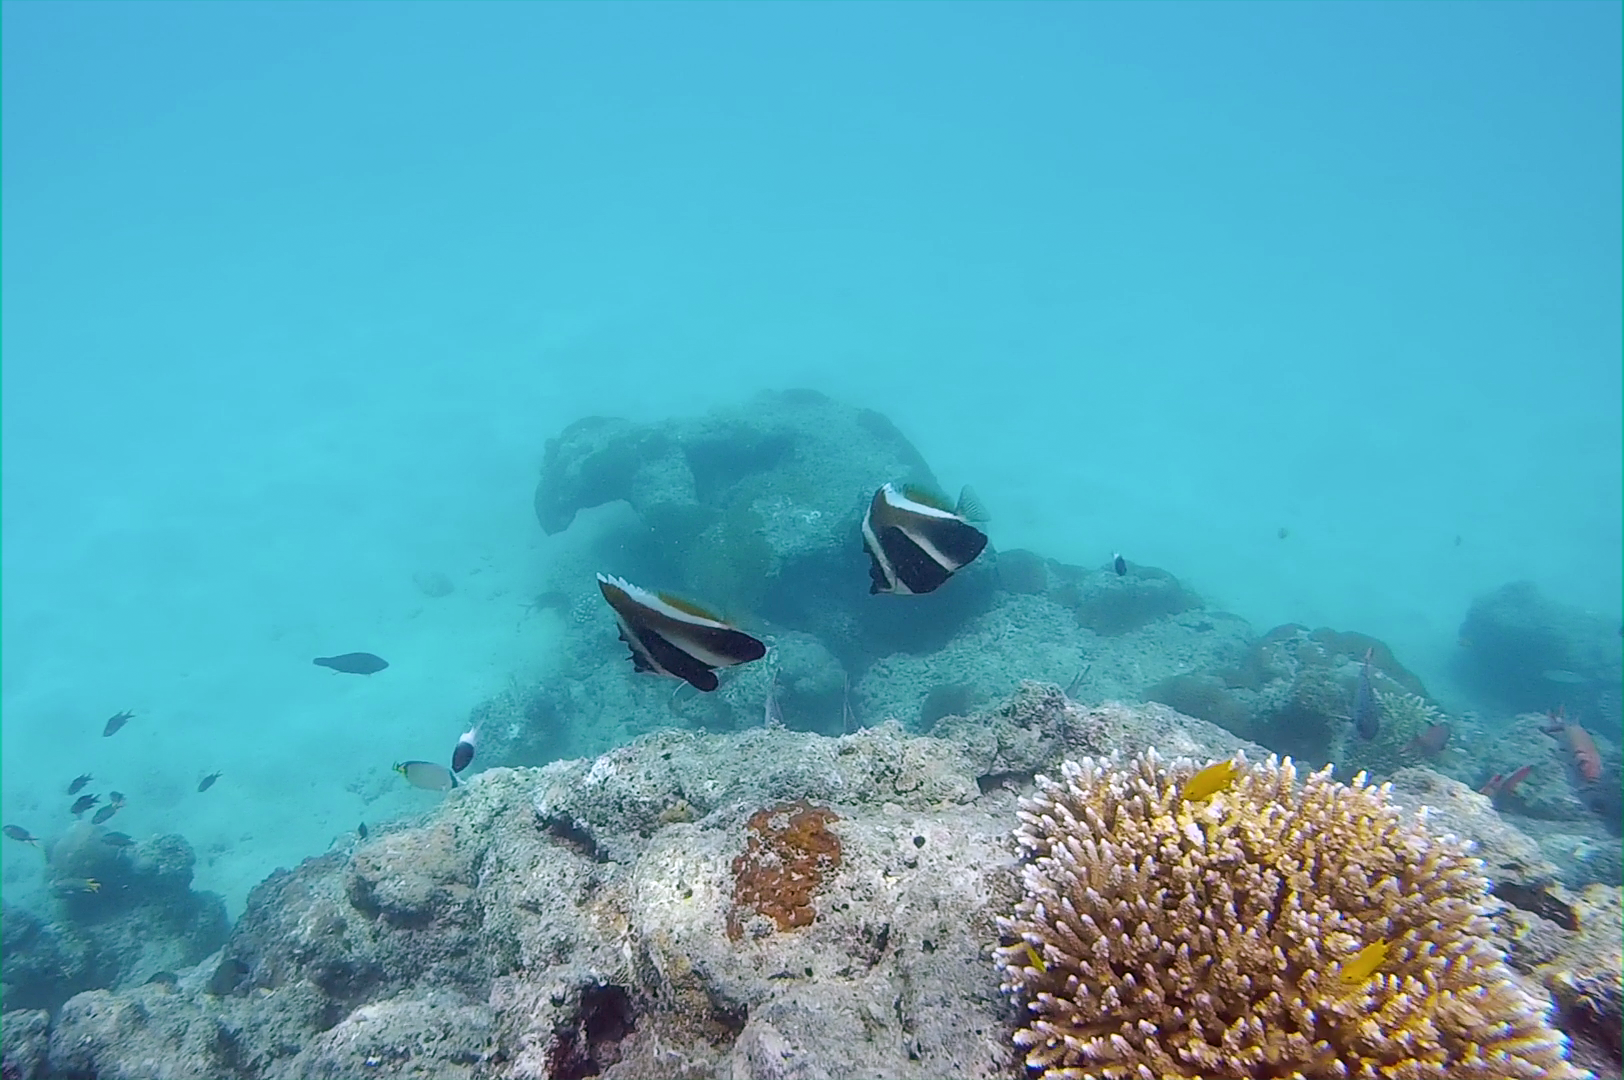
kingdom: Animalia
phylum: Chordata
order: Perciformes
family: Chaetodontidae
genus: Heniochus
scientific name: Heniochus pleurotaenia
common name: Indian ocean bannerfish
